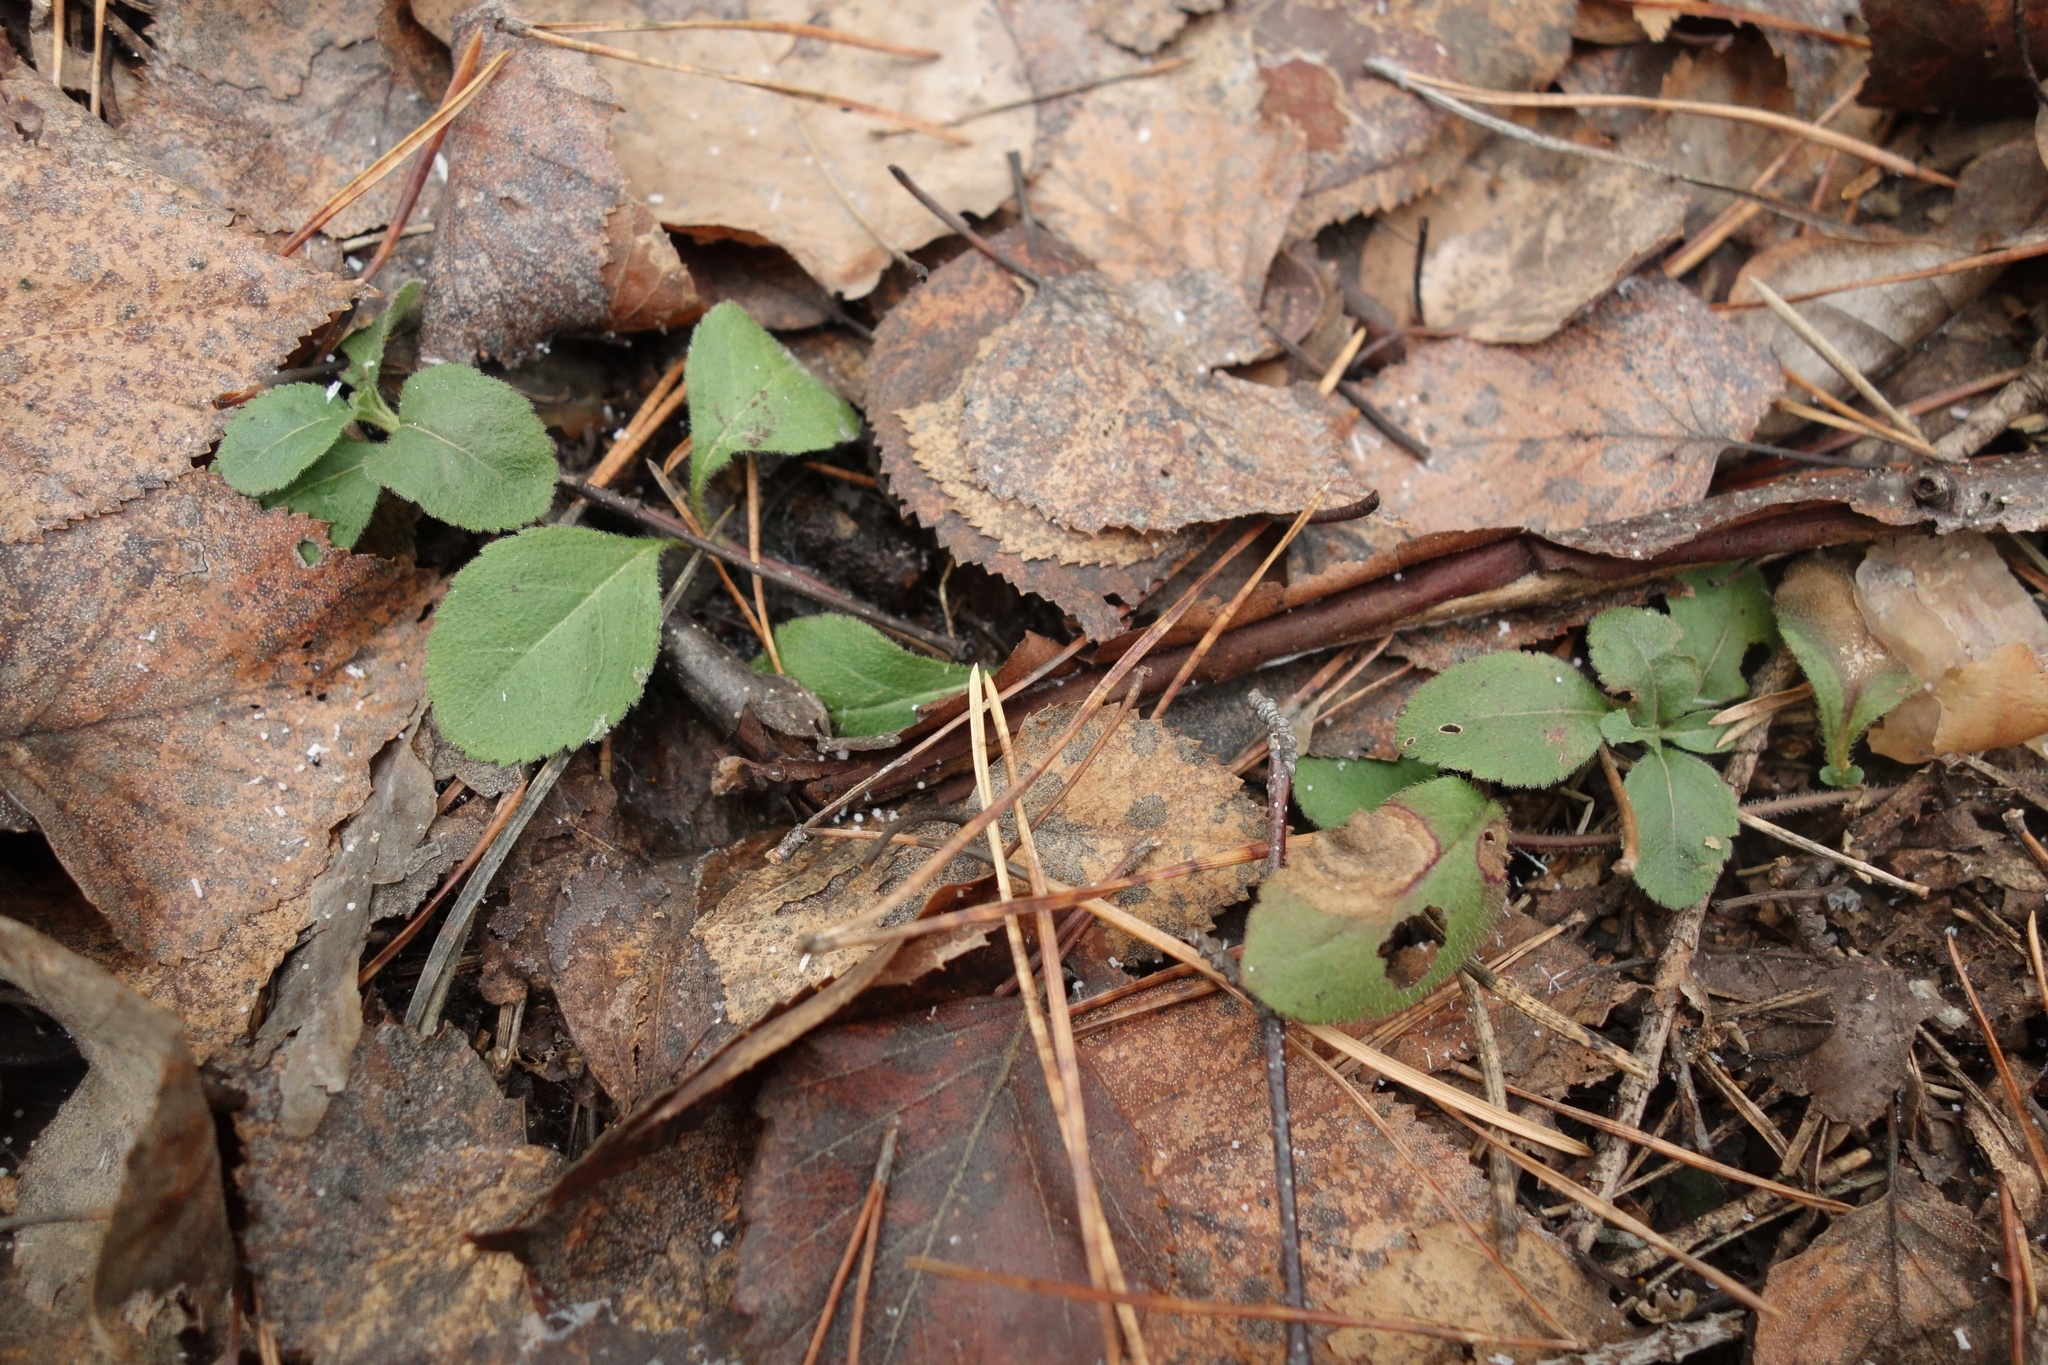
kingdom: Plantae
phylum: Tracheophyta
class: Magnoliopsida
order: Lamiales
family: Plantaginaceae
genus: Veronica
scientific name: Veronica officinalis
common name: Common speedwell
